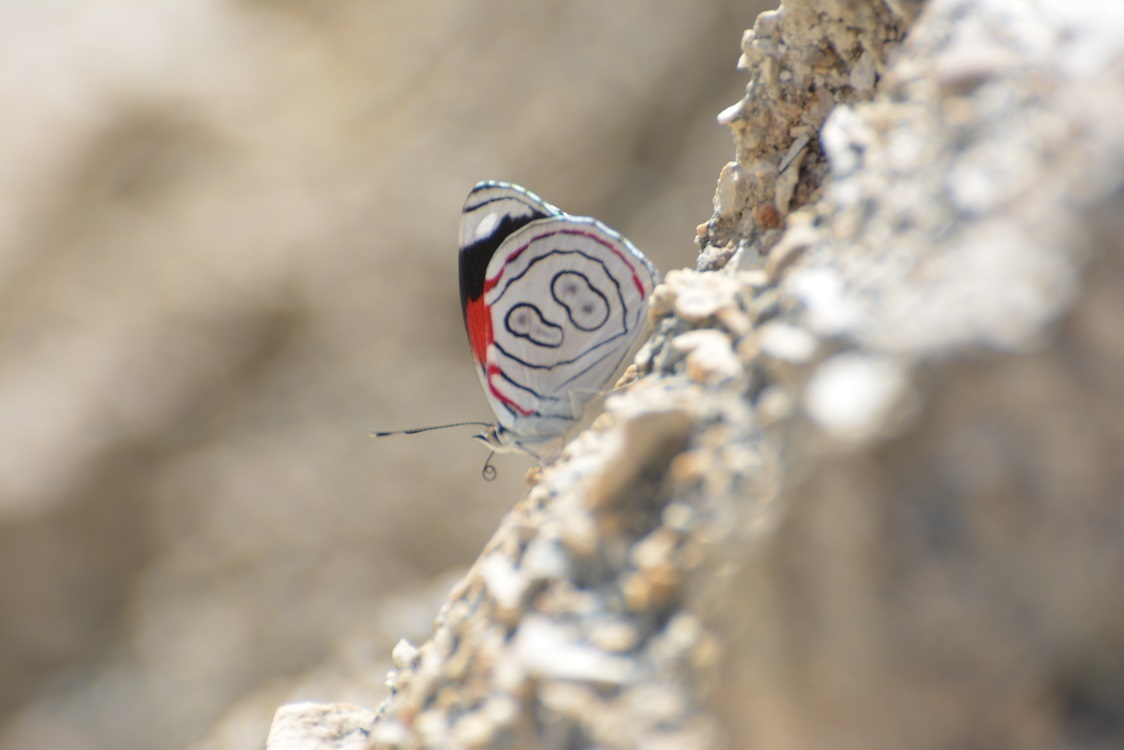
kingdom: Animalia
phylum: Arthropoda
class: Insecta
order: Lepidoptera
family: Nymphalidae
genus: Diaethria
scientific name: Diaethria astala
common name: Navy eighty-eight
